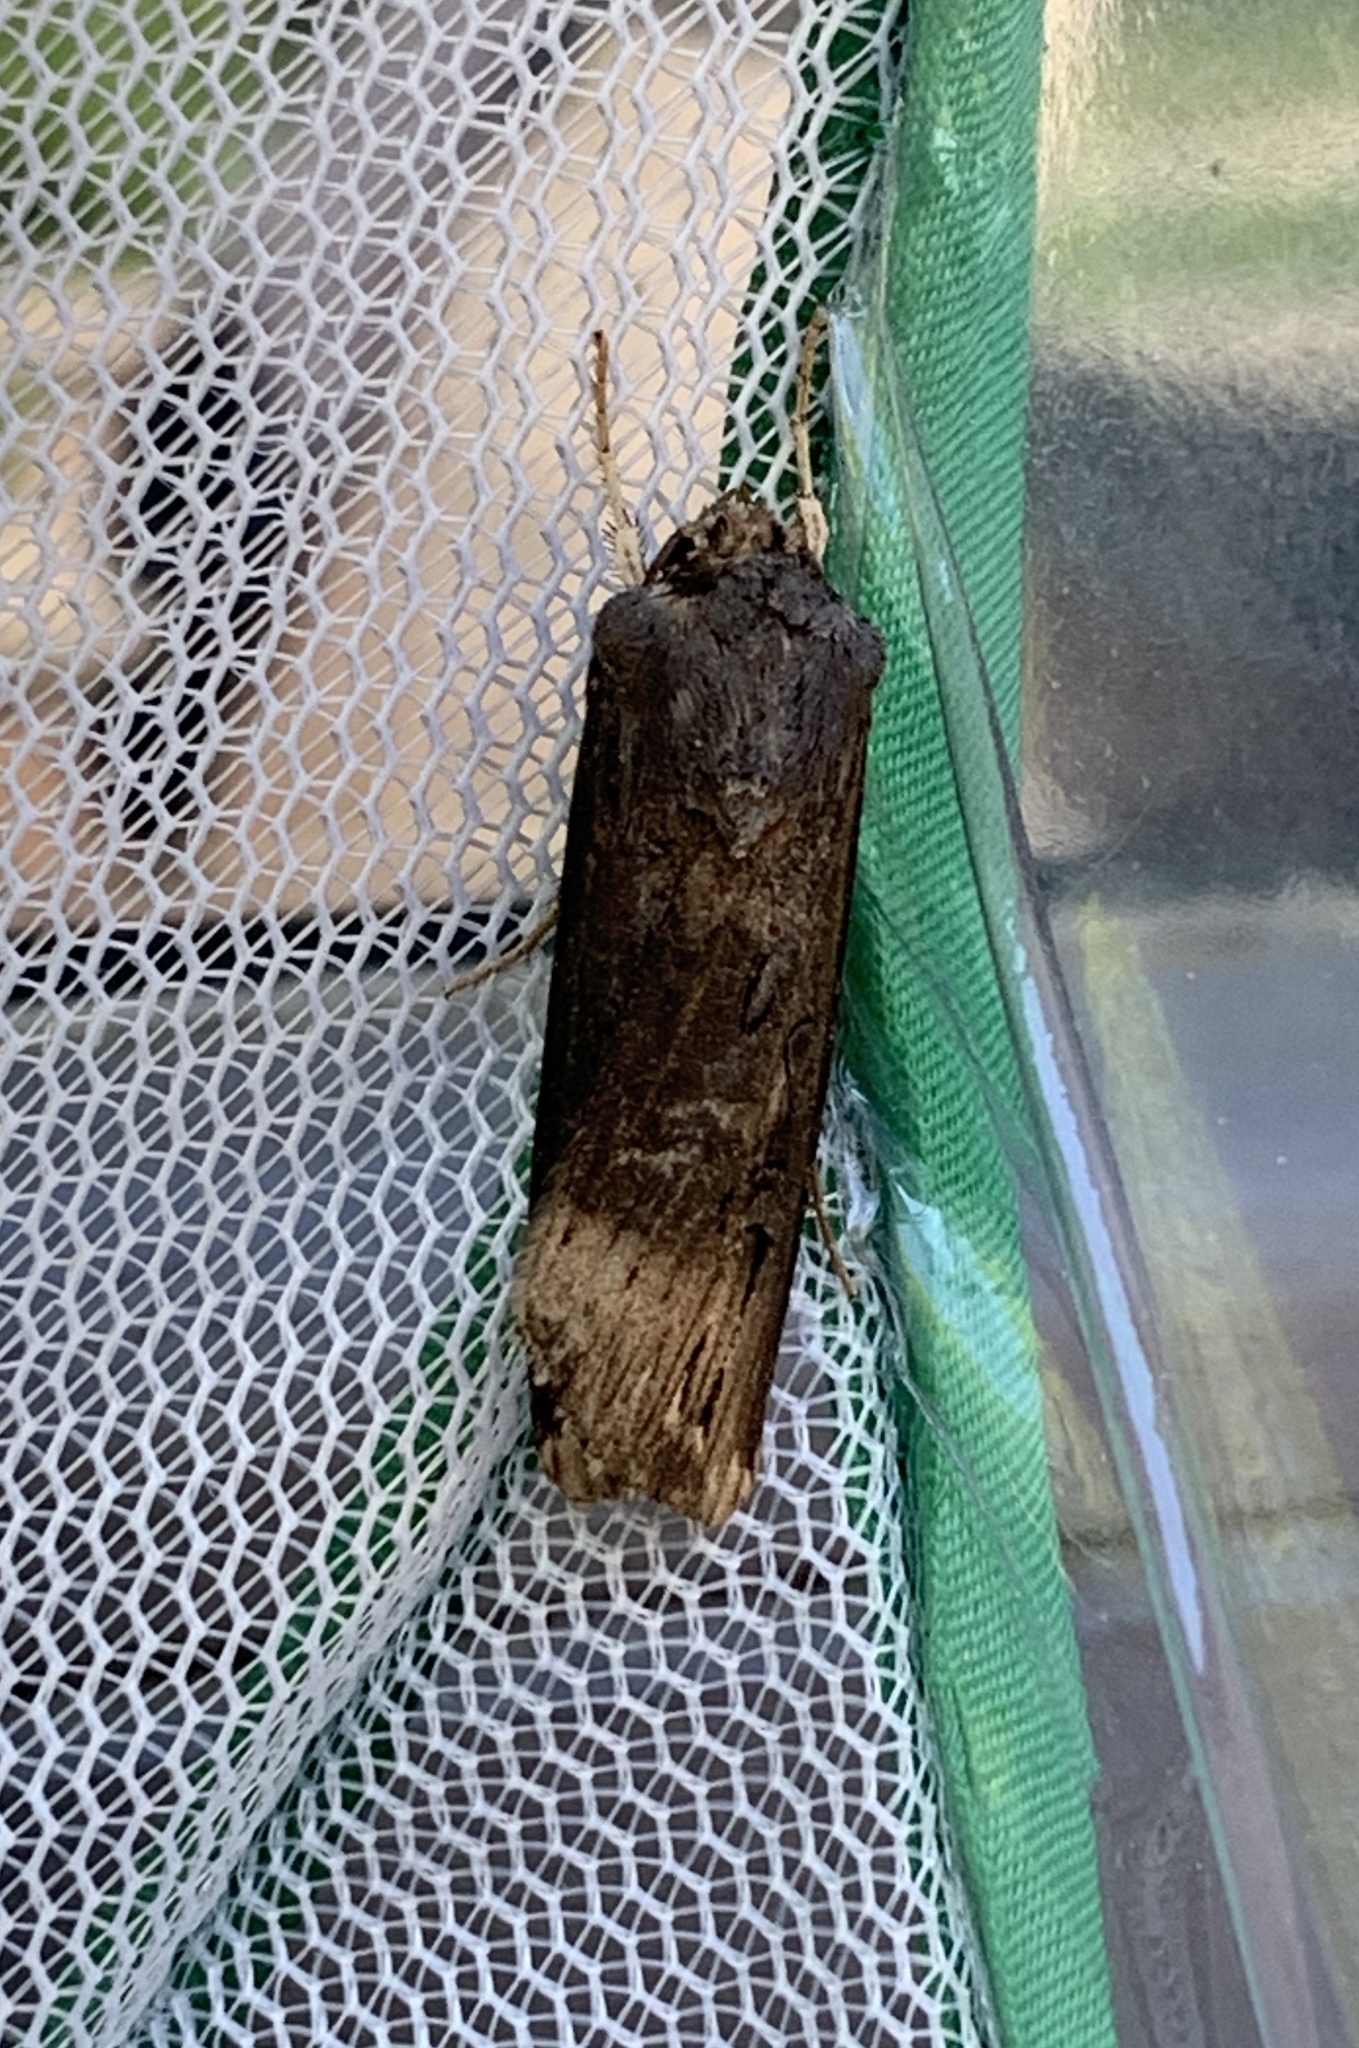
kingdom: Animalia
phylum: Arthropoda
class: Insecta
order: Lepidoptera
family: Noctuidae
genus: Agrotis
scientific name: Agrotis ipsilon
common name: Dark sword-grass
